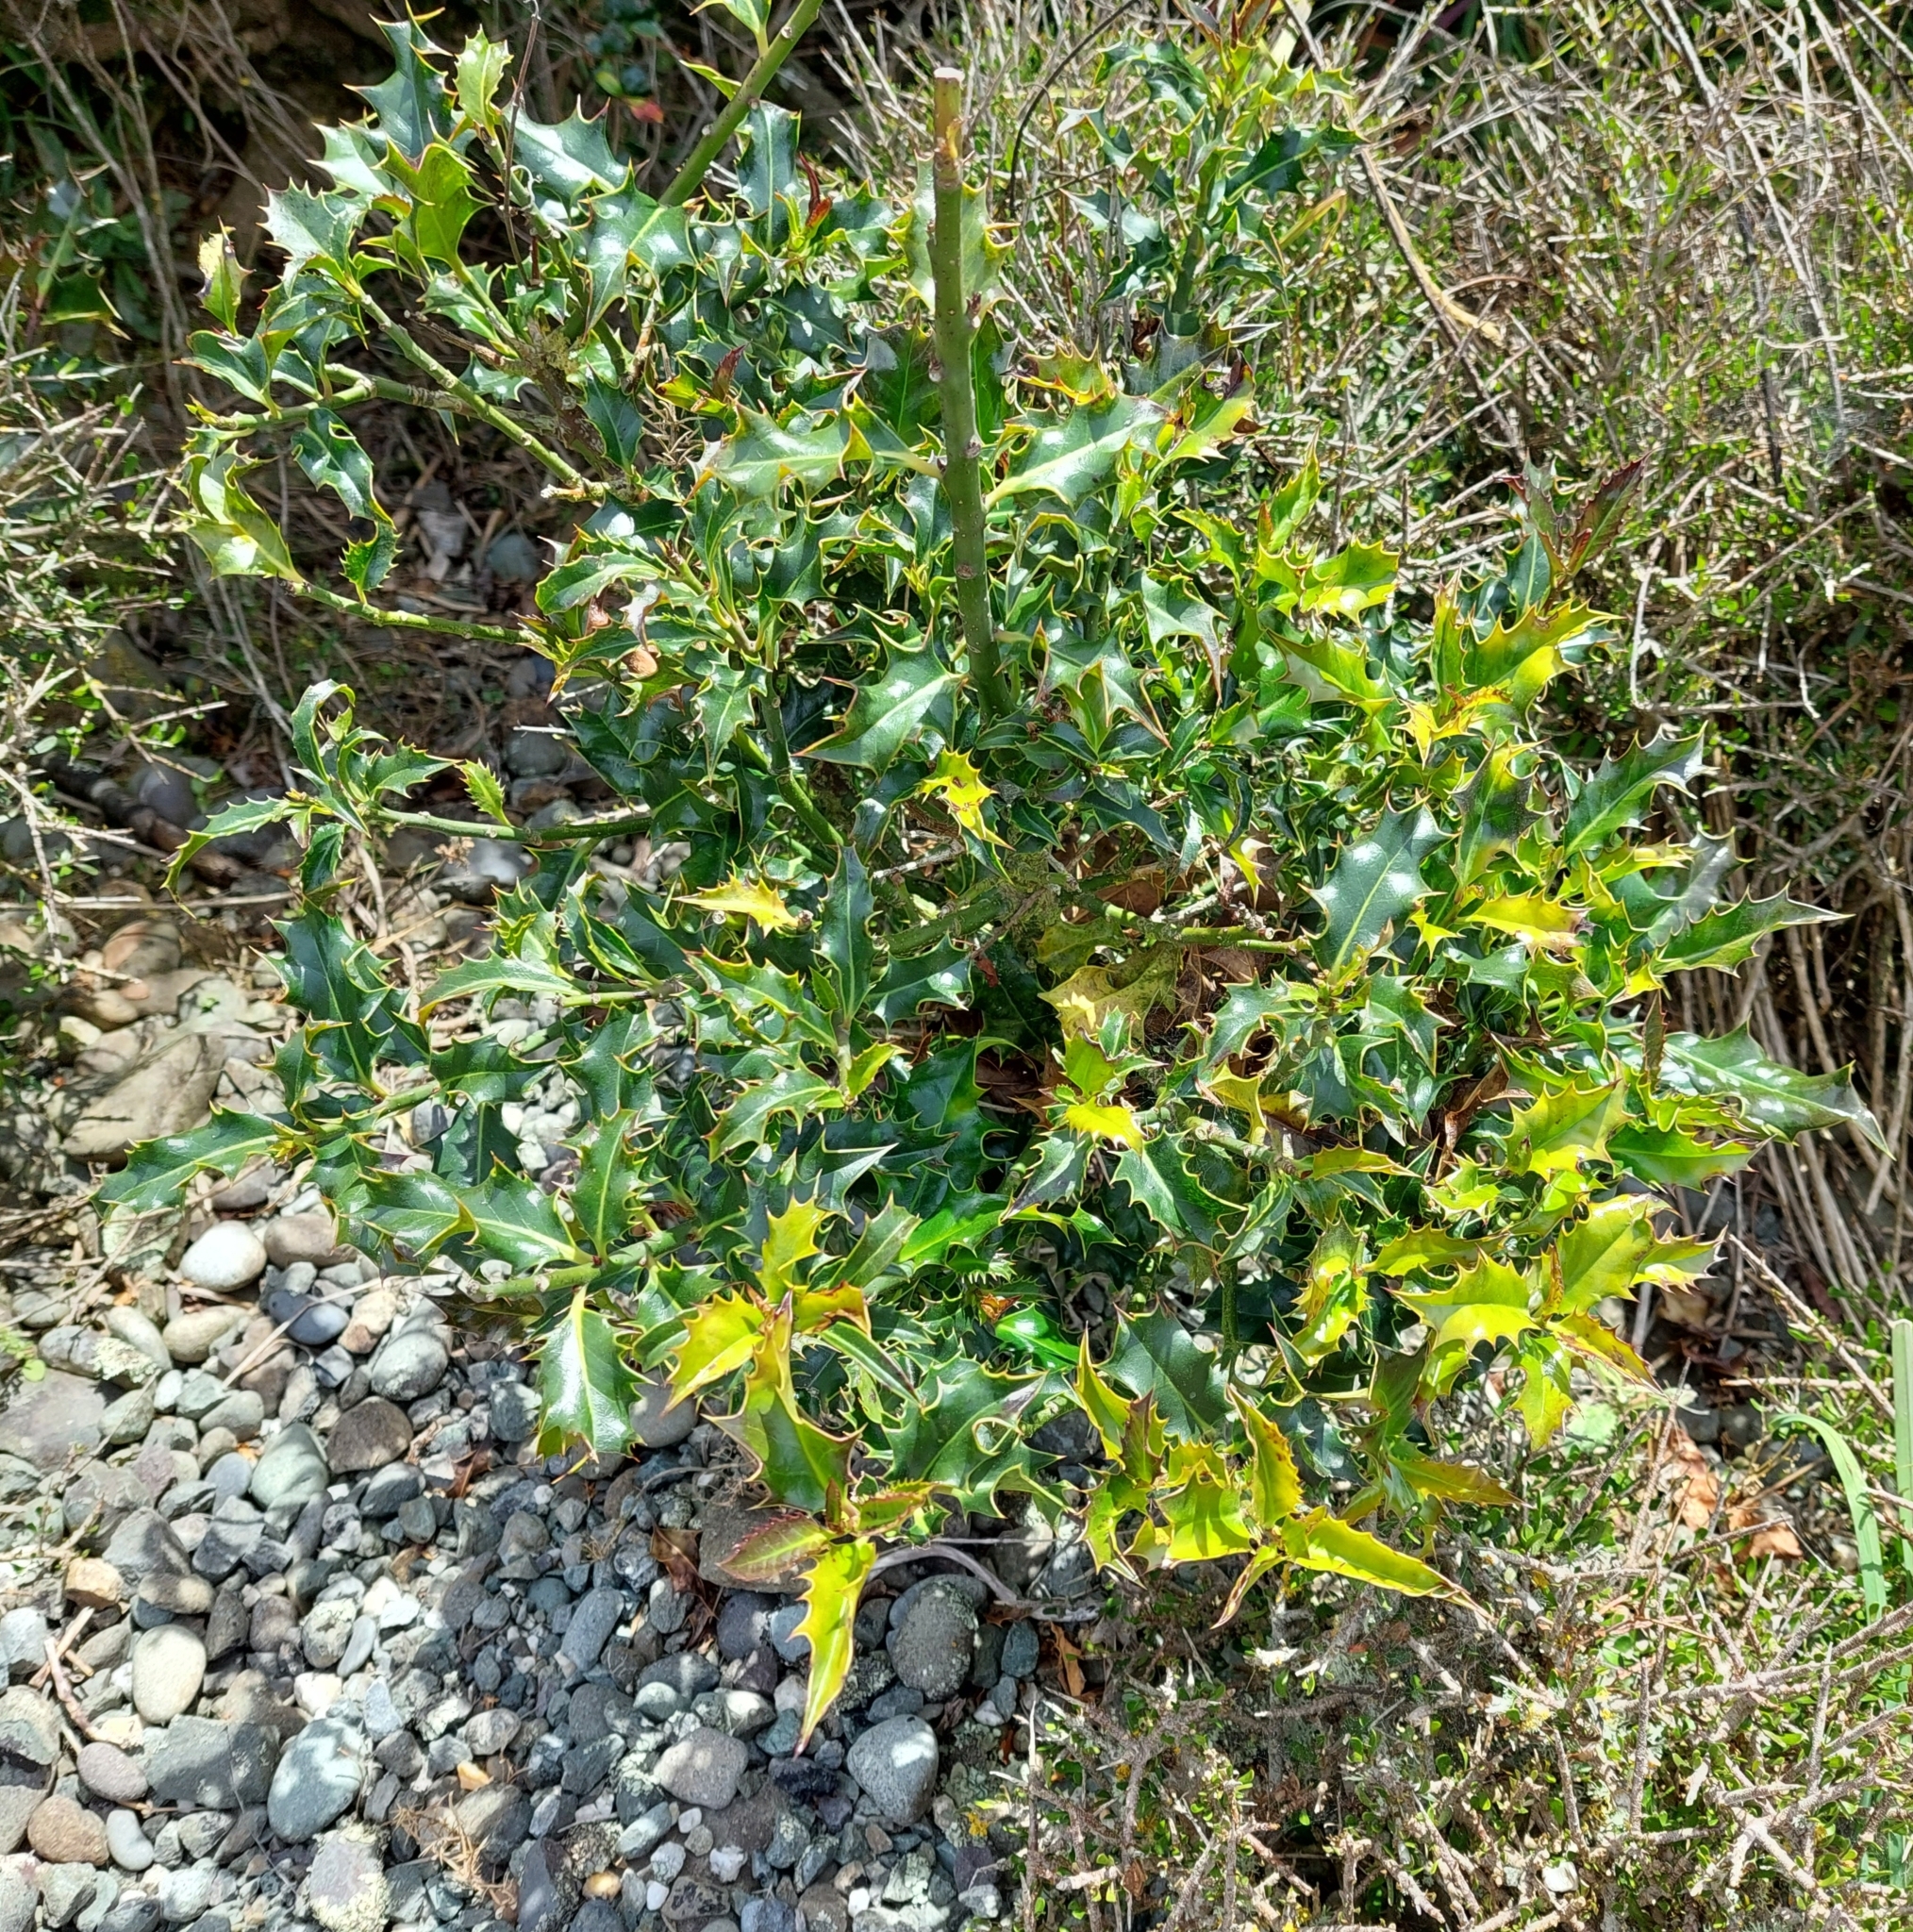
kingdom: Plantae
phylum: Tracheophyta
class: Magnoliopsida
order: Aquifoliales
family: Aquifoliaceae
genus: Ilex
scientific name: Ilex aquifolium
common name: English holly
